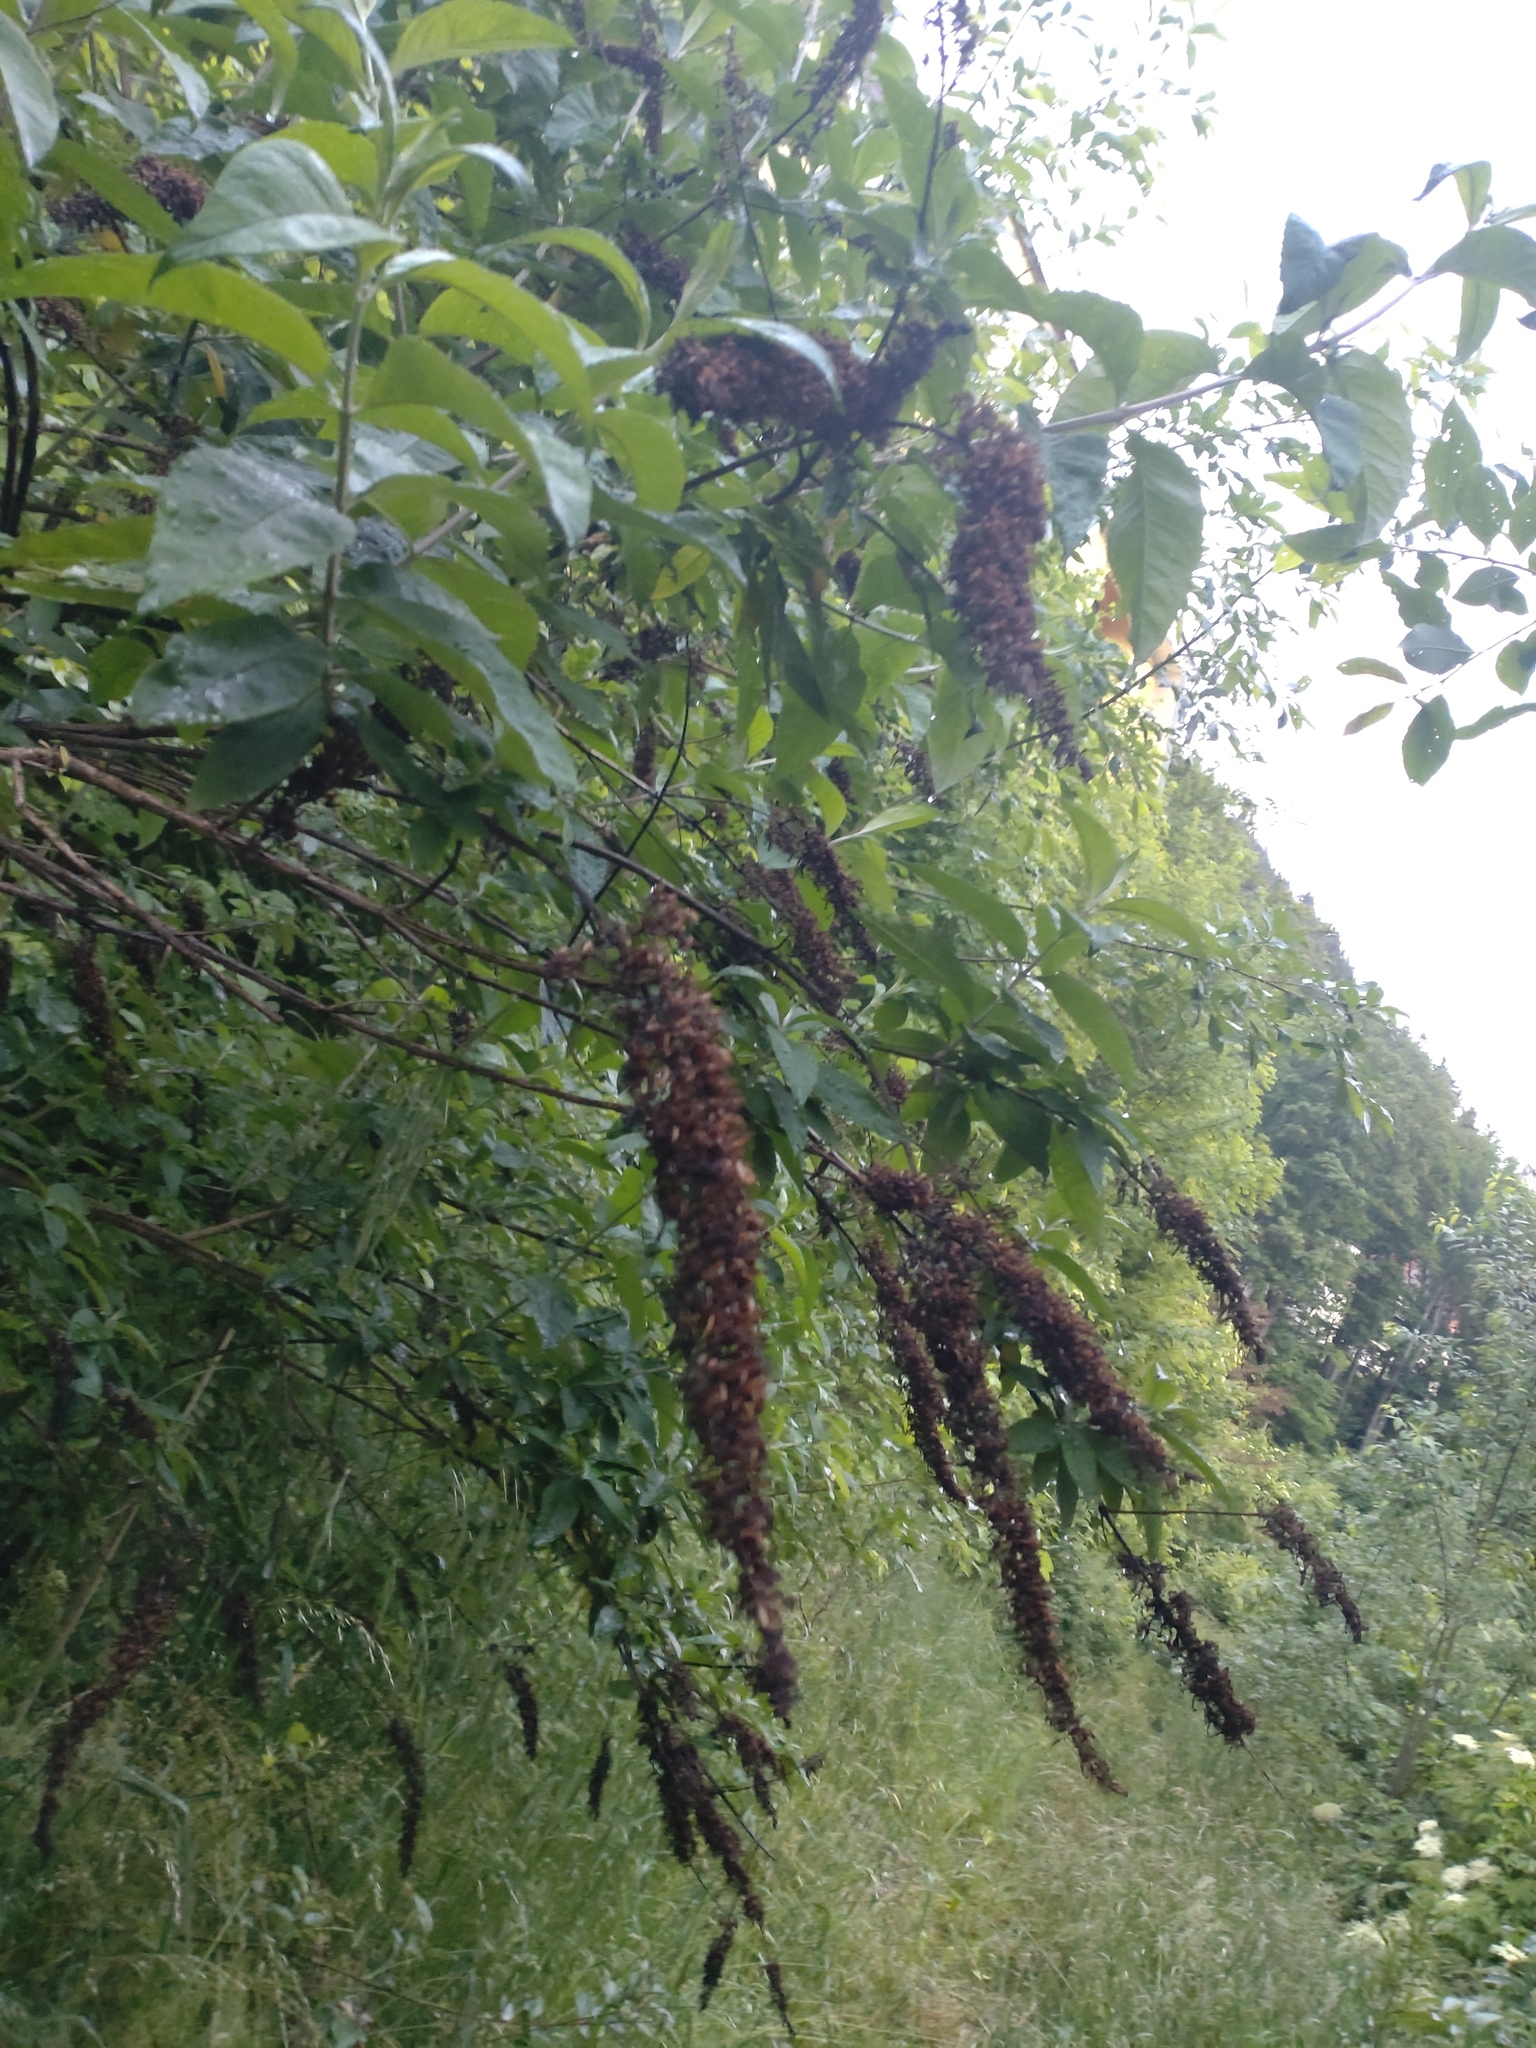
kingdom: Plantae
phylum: Tracheophyta
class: Magnoliopsida
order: Lamiales
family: Scrophulariaceae
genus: Buddleja
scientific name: Buddleja davidii
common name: Butterfly-bush
